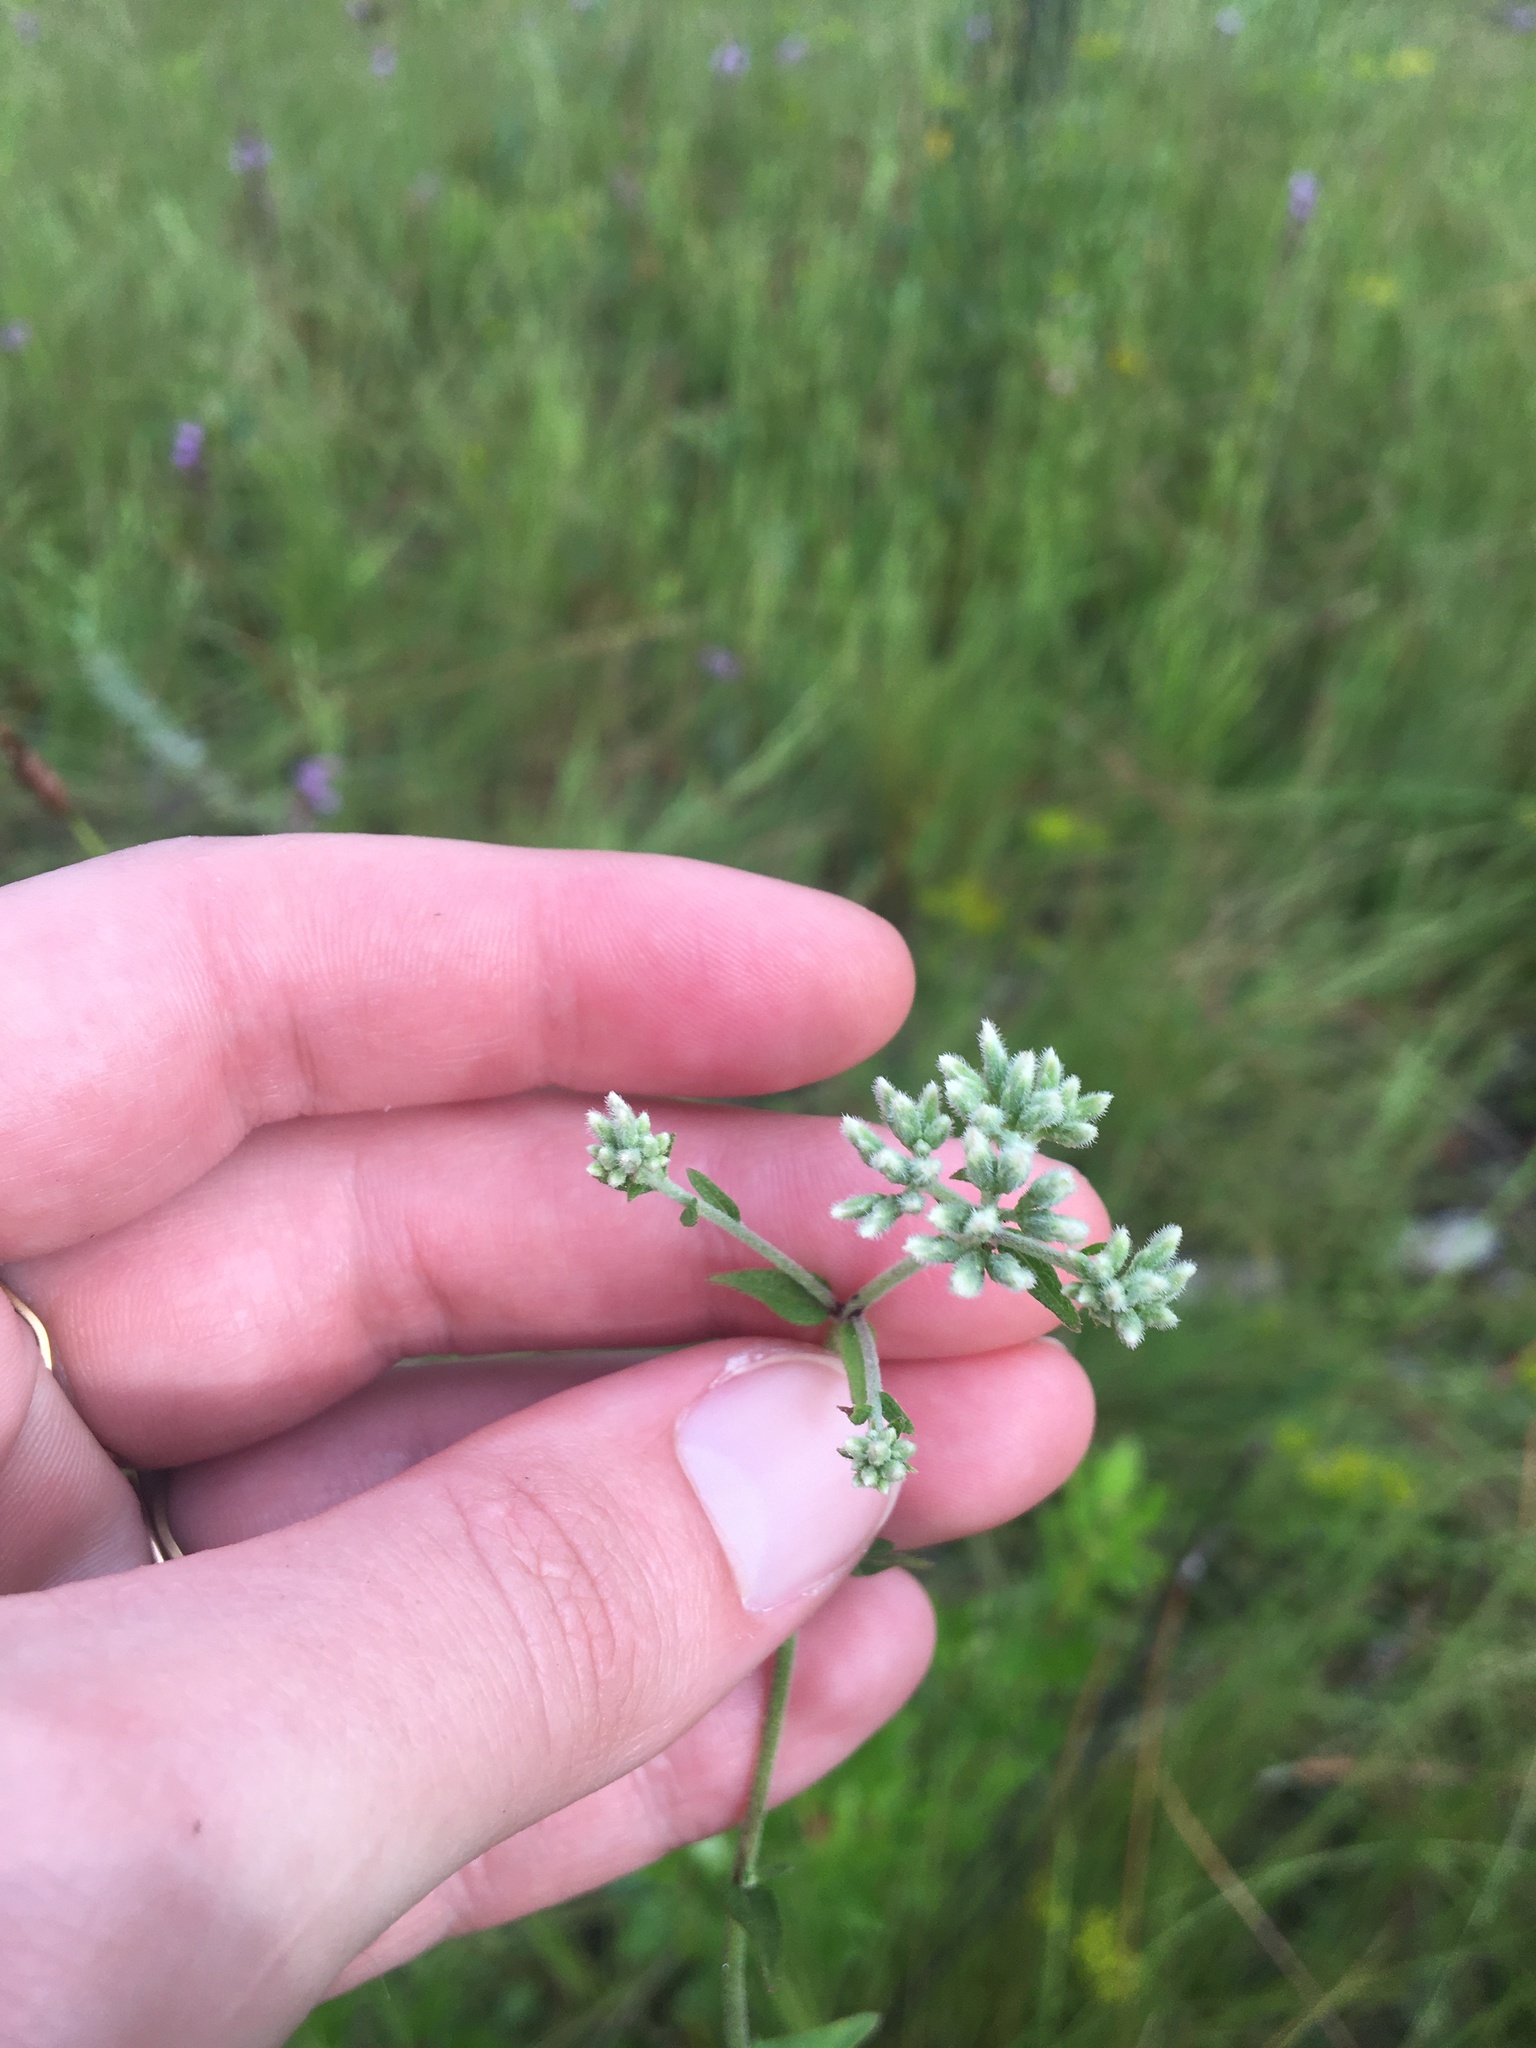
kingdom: Plantae
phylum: Tracheophyta
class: Magnoliopsida
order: Asterales
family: Asteraceae
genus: Eupatorium
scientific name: Eupatorium pilosum
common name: Rough boneset
